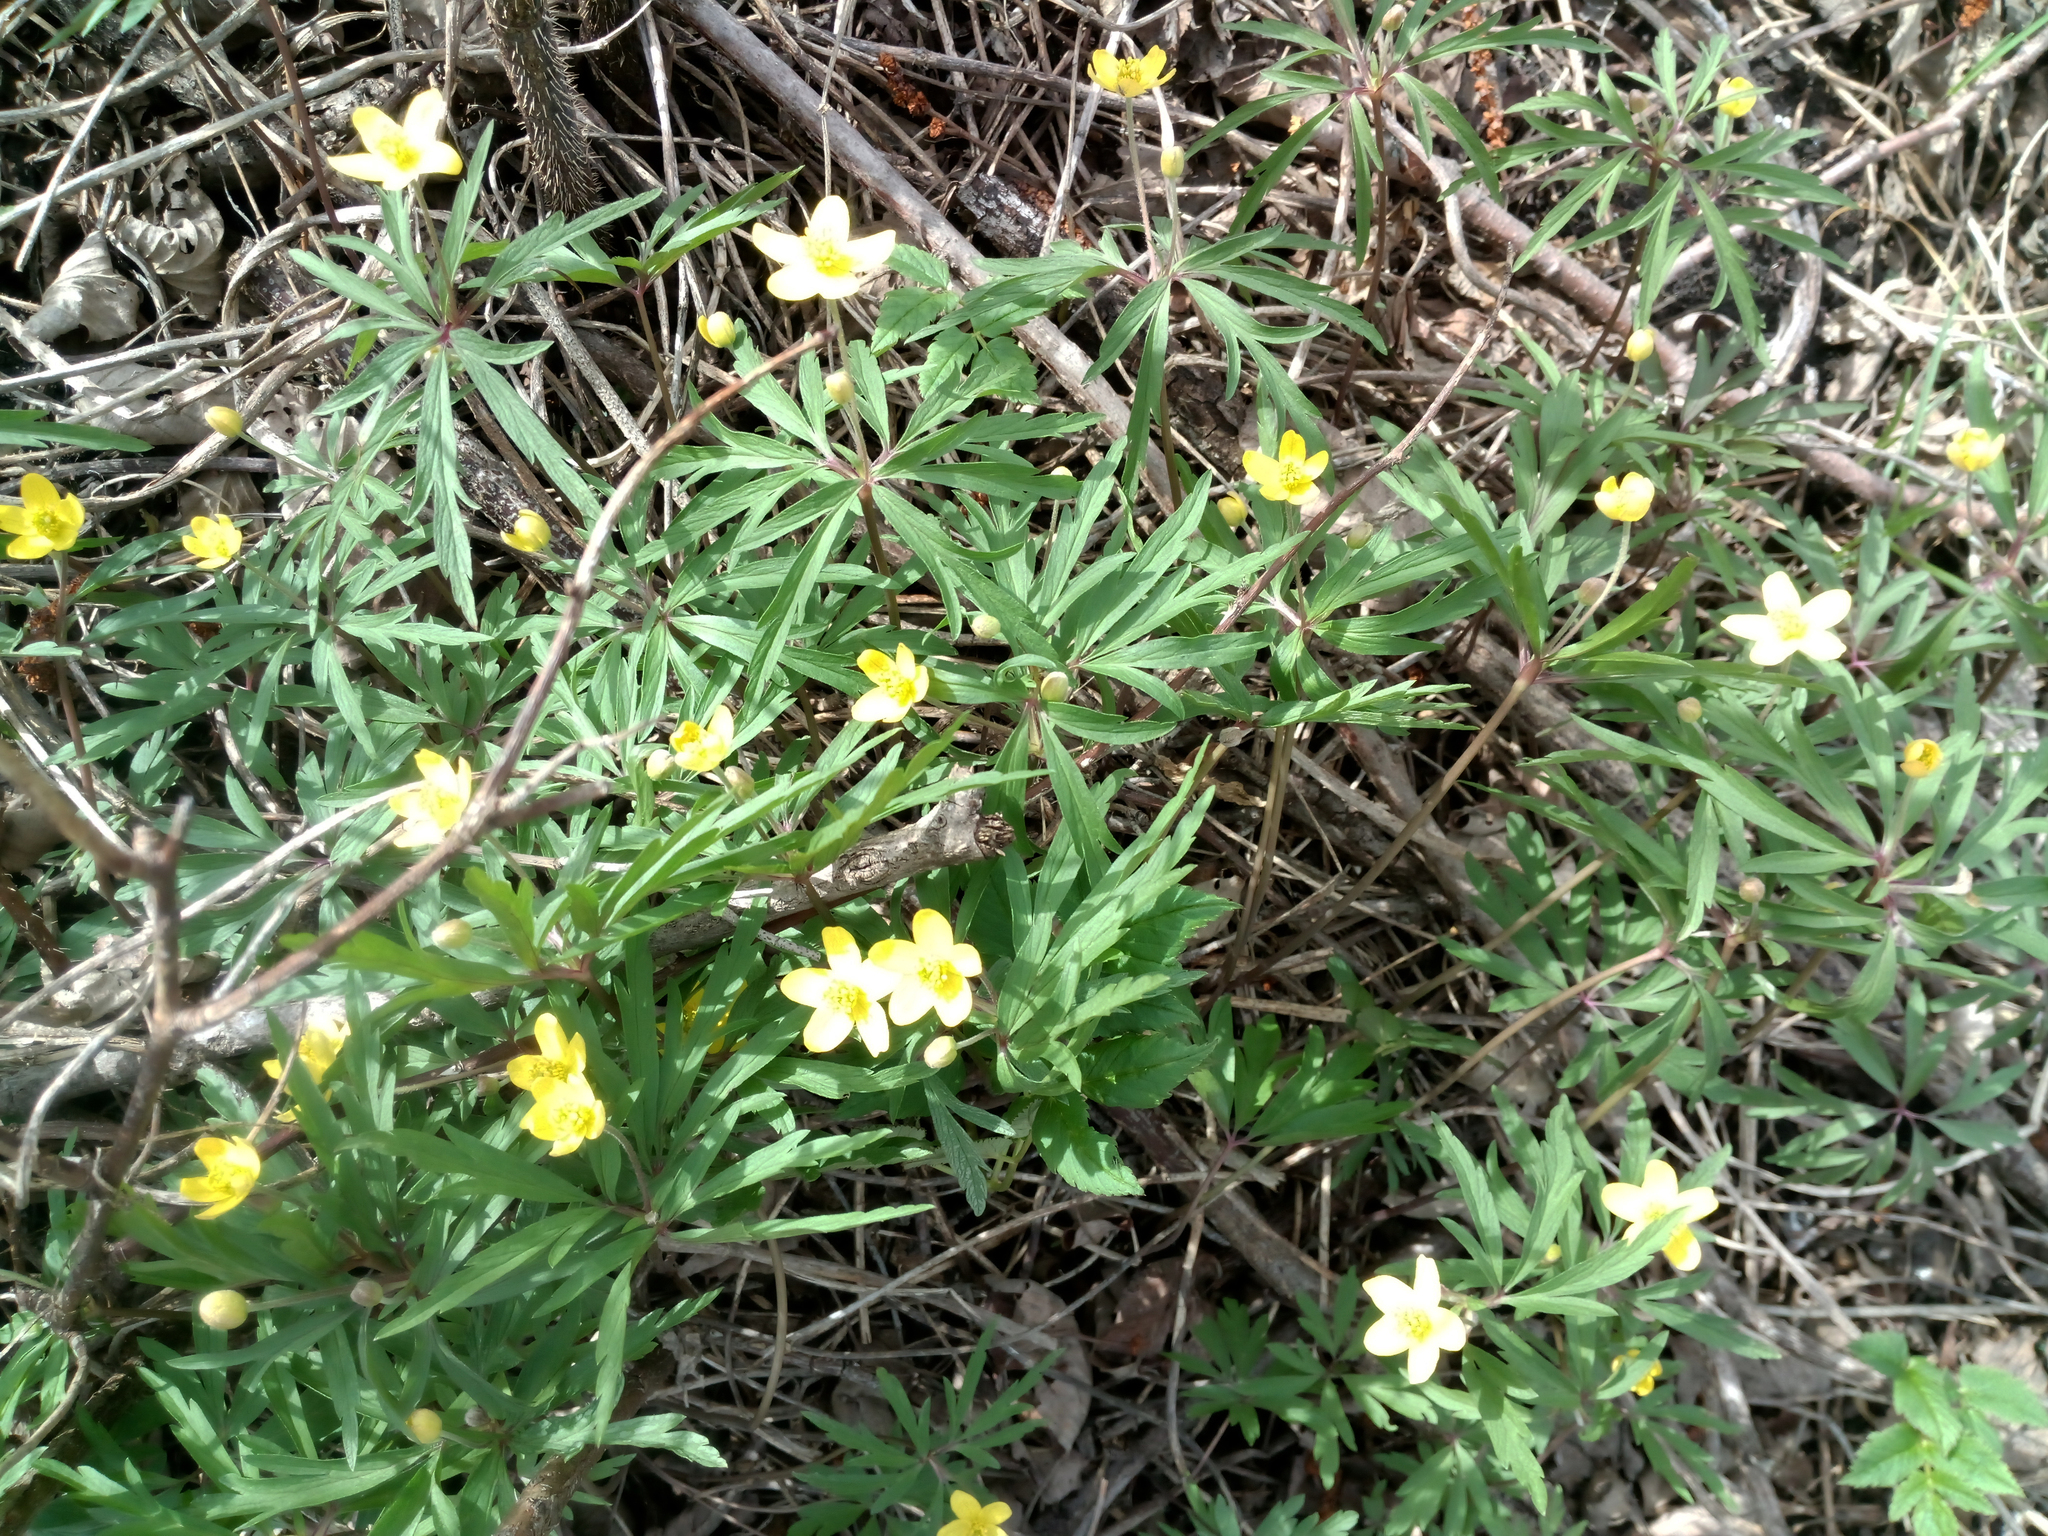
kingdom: Plantae
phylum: Tracheophyta
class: Magnoliopsida
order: Ranunculales
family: Ranunculaceae
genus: Anemone
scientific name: Anemone ranunculoides
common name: Yellow anemone
